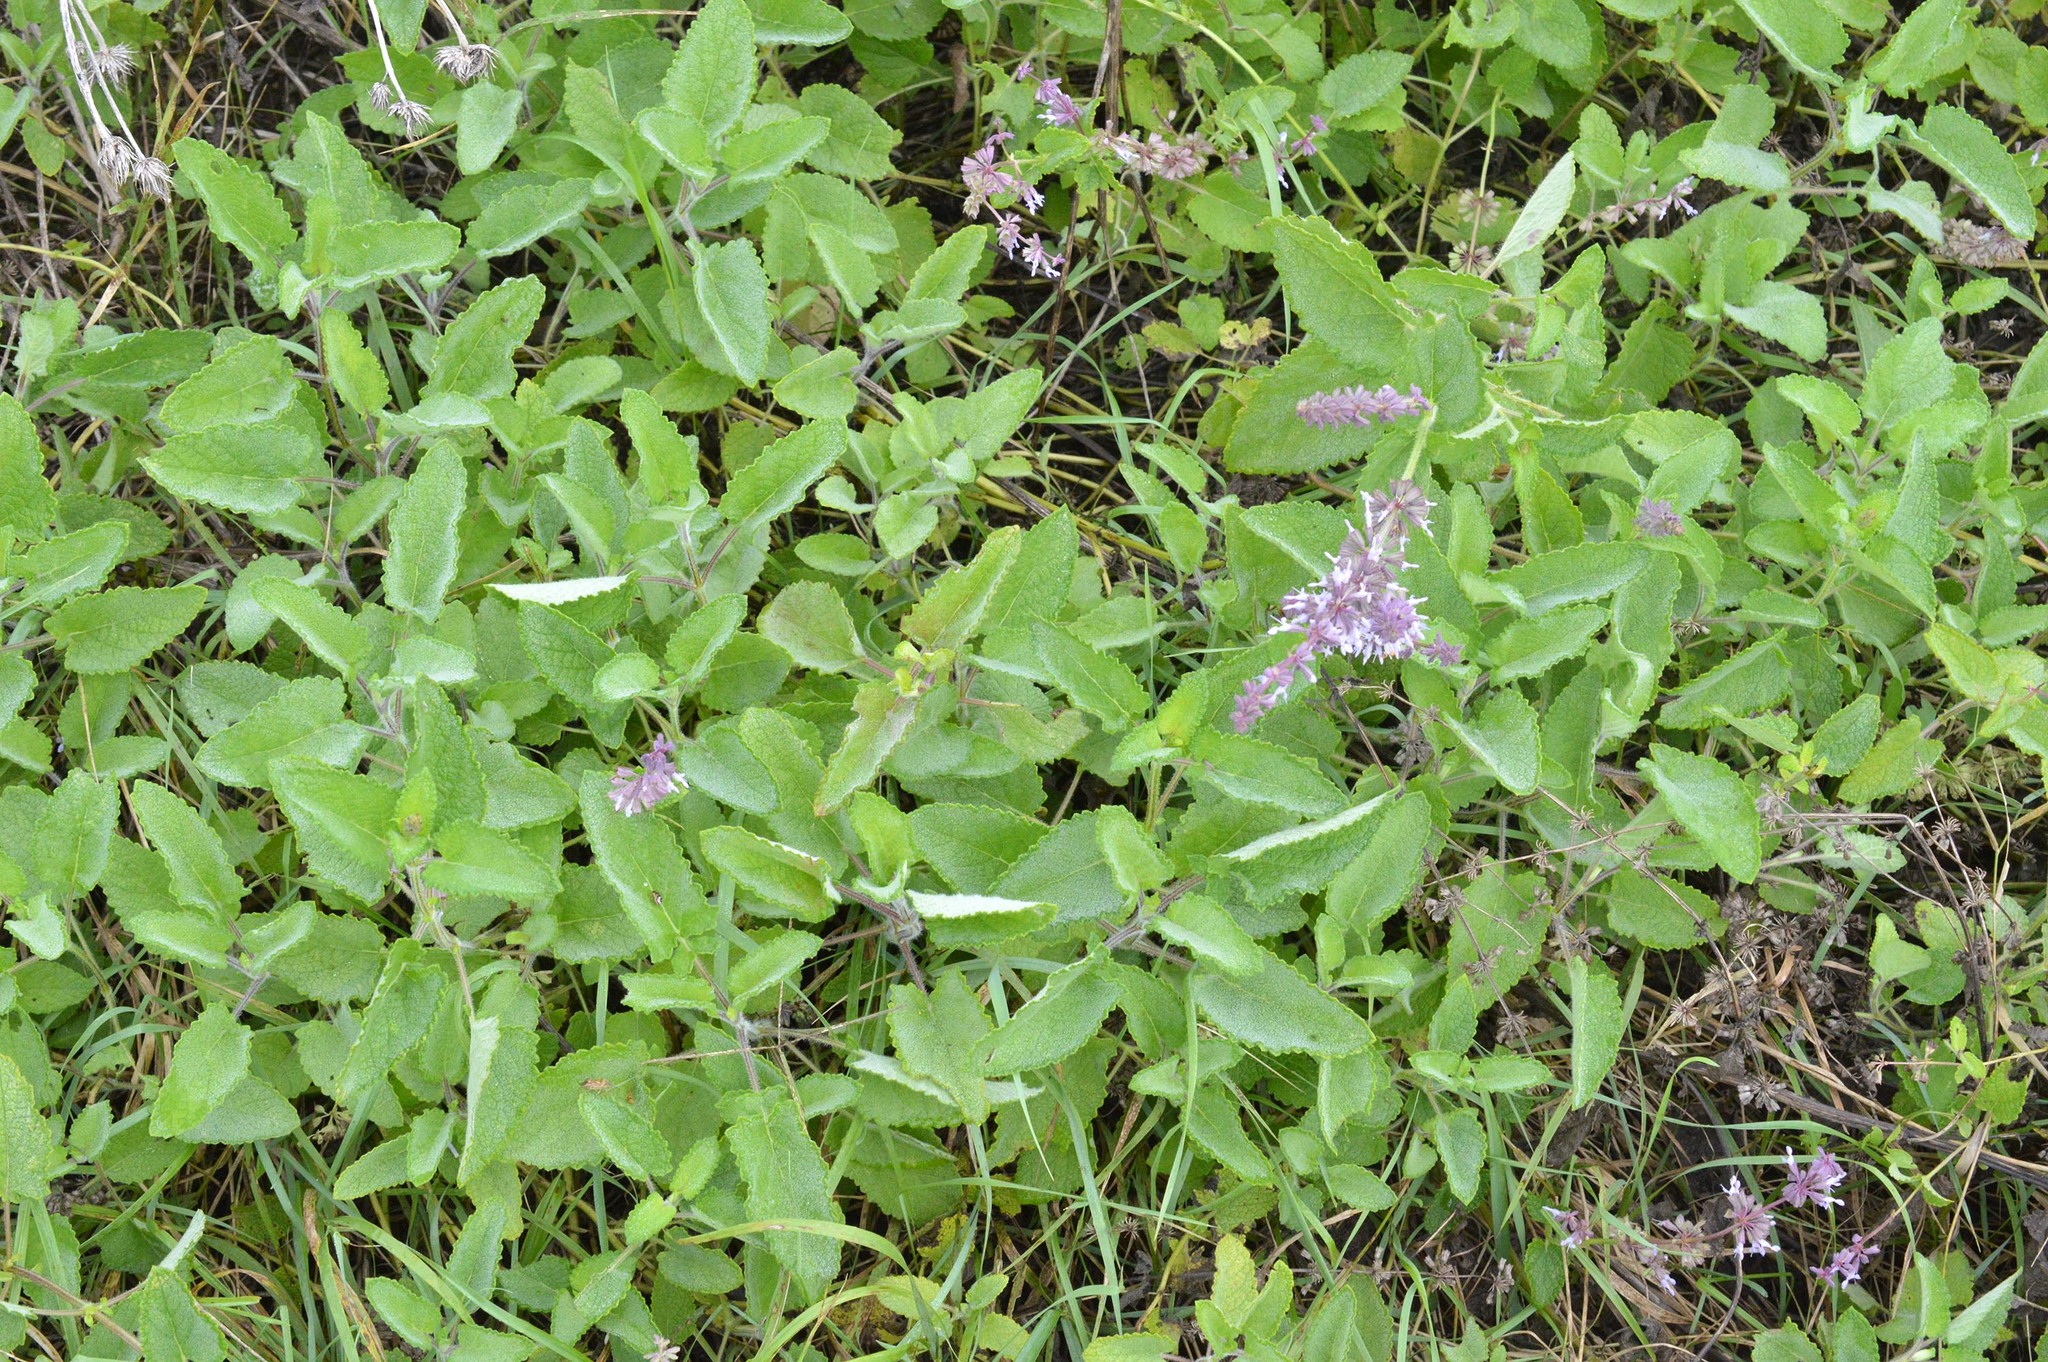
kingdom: Plantae
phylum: Tracheophyta
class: Magnoliopsida
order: Lamiales
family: Lamiaceae
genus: Salvia
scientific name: Salvia verticillata
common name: Whorled clary
